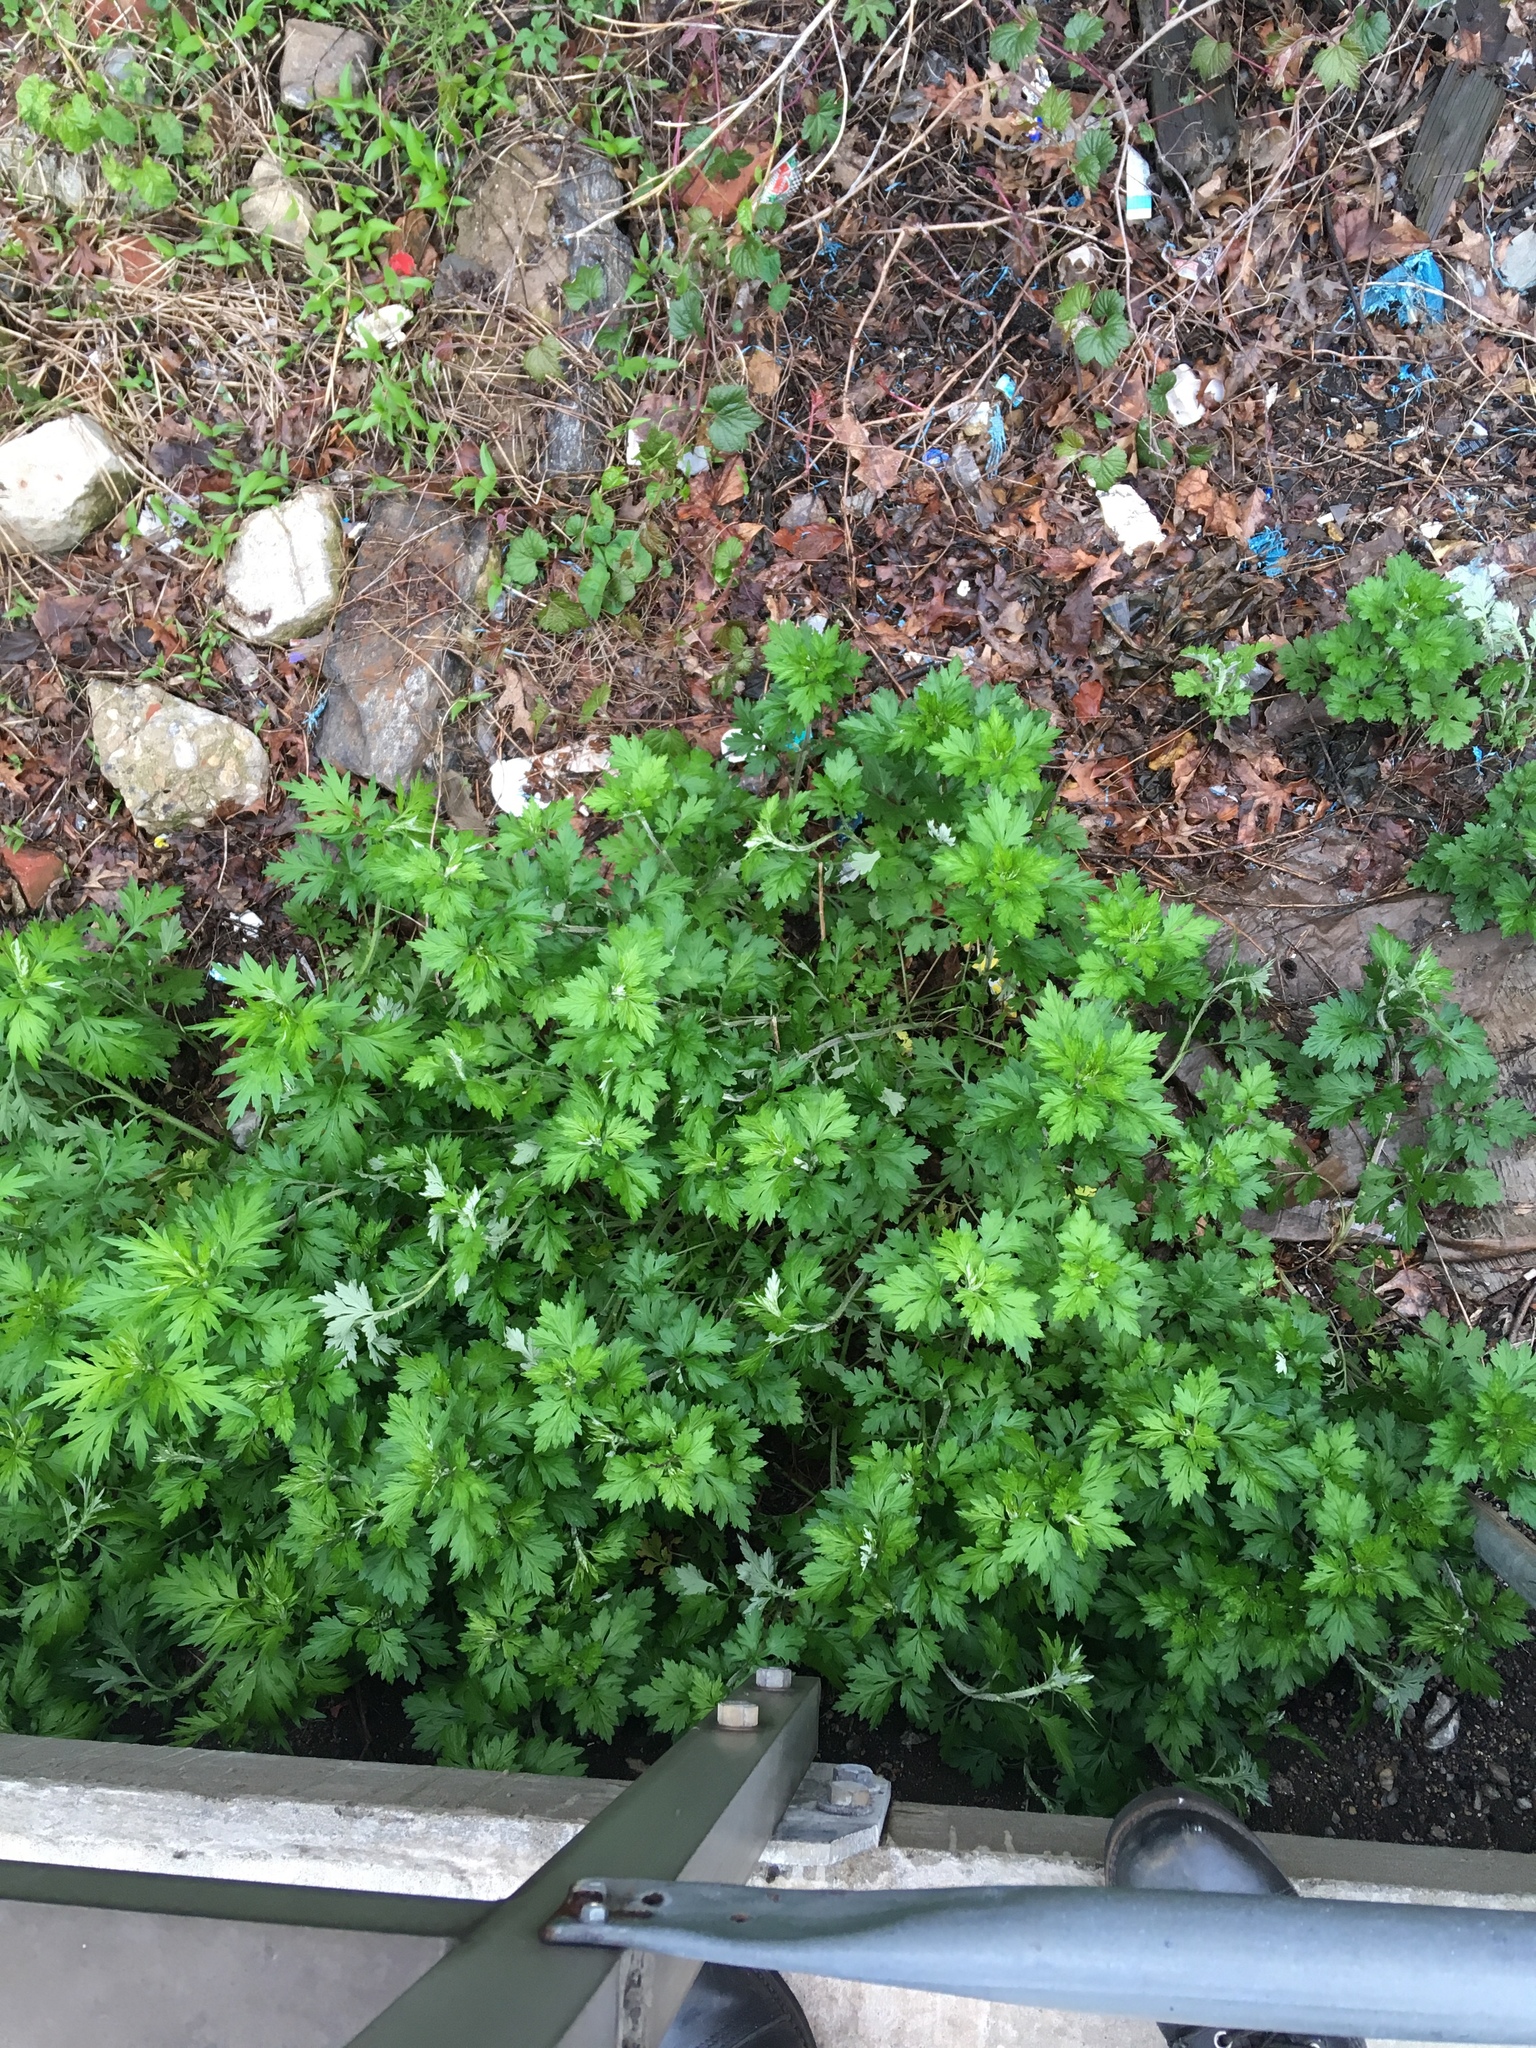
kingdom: Plantae
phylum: Tracheophyta
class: Magnoliopsida
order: Asterales
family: Asteraceae
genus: Artemisia
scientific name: Artemisia vulgaris
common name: Mugwort
